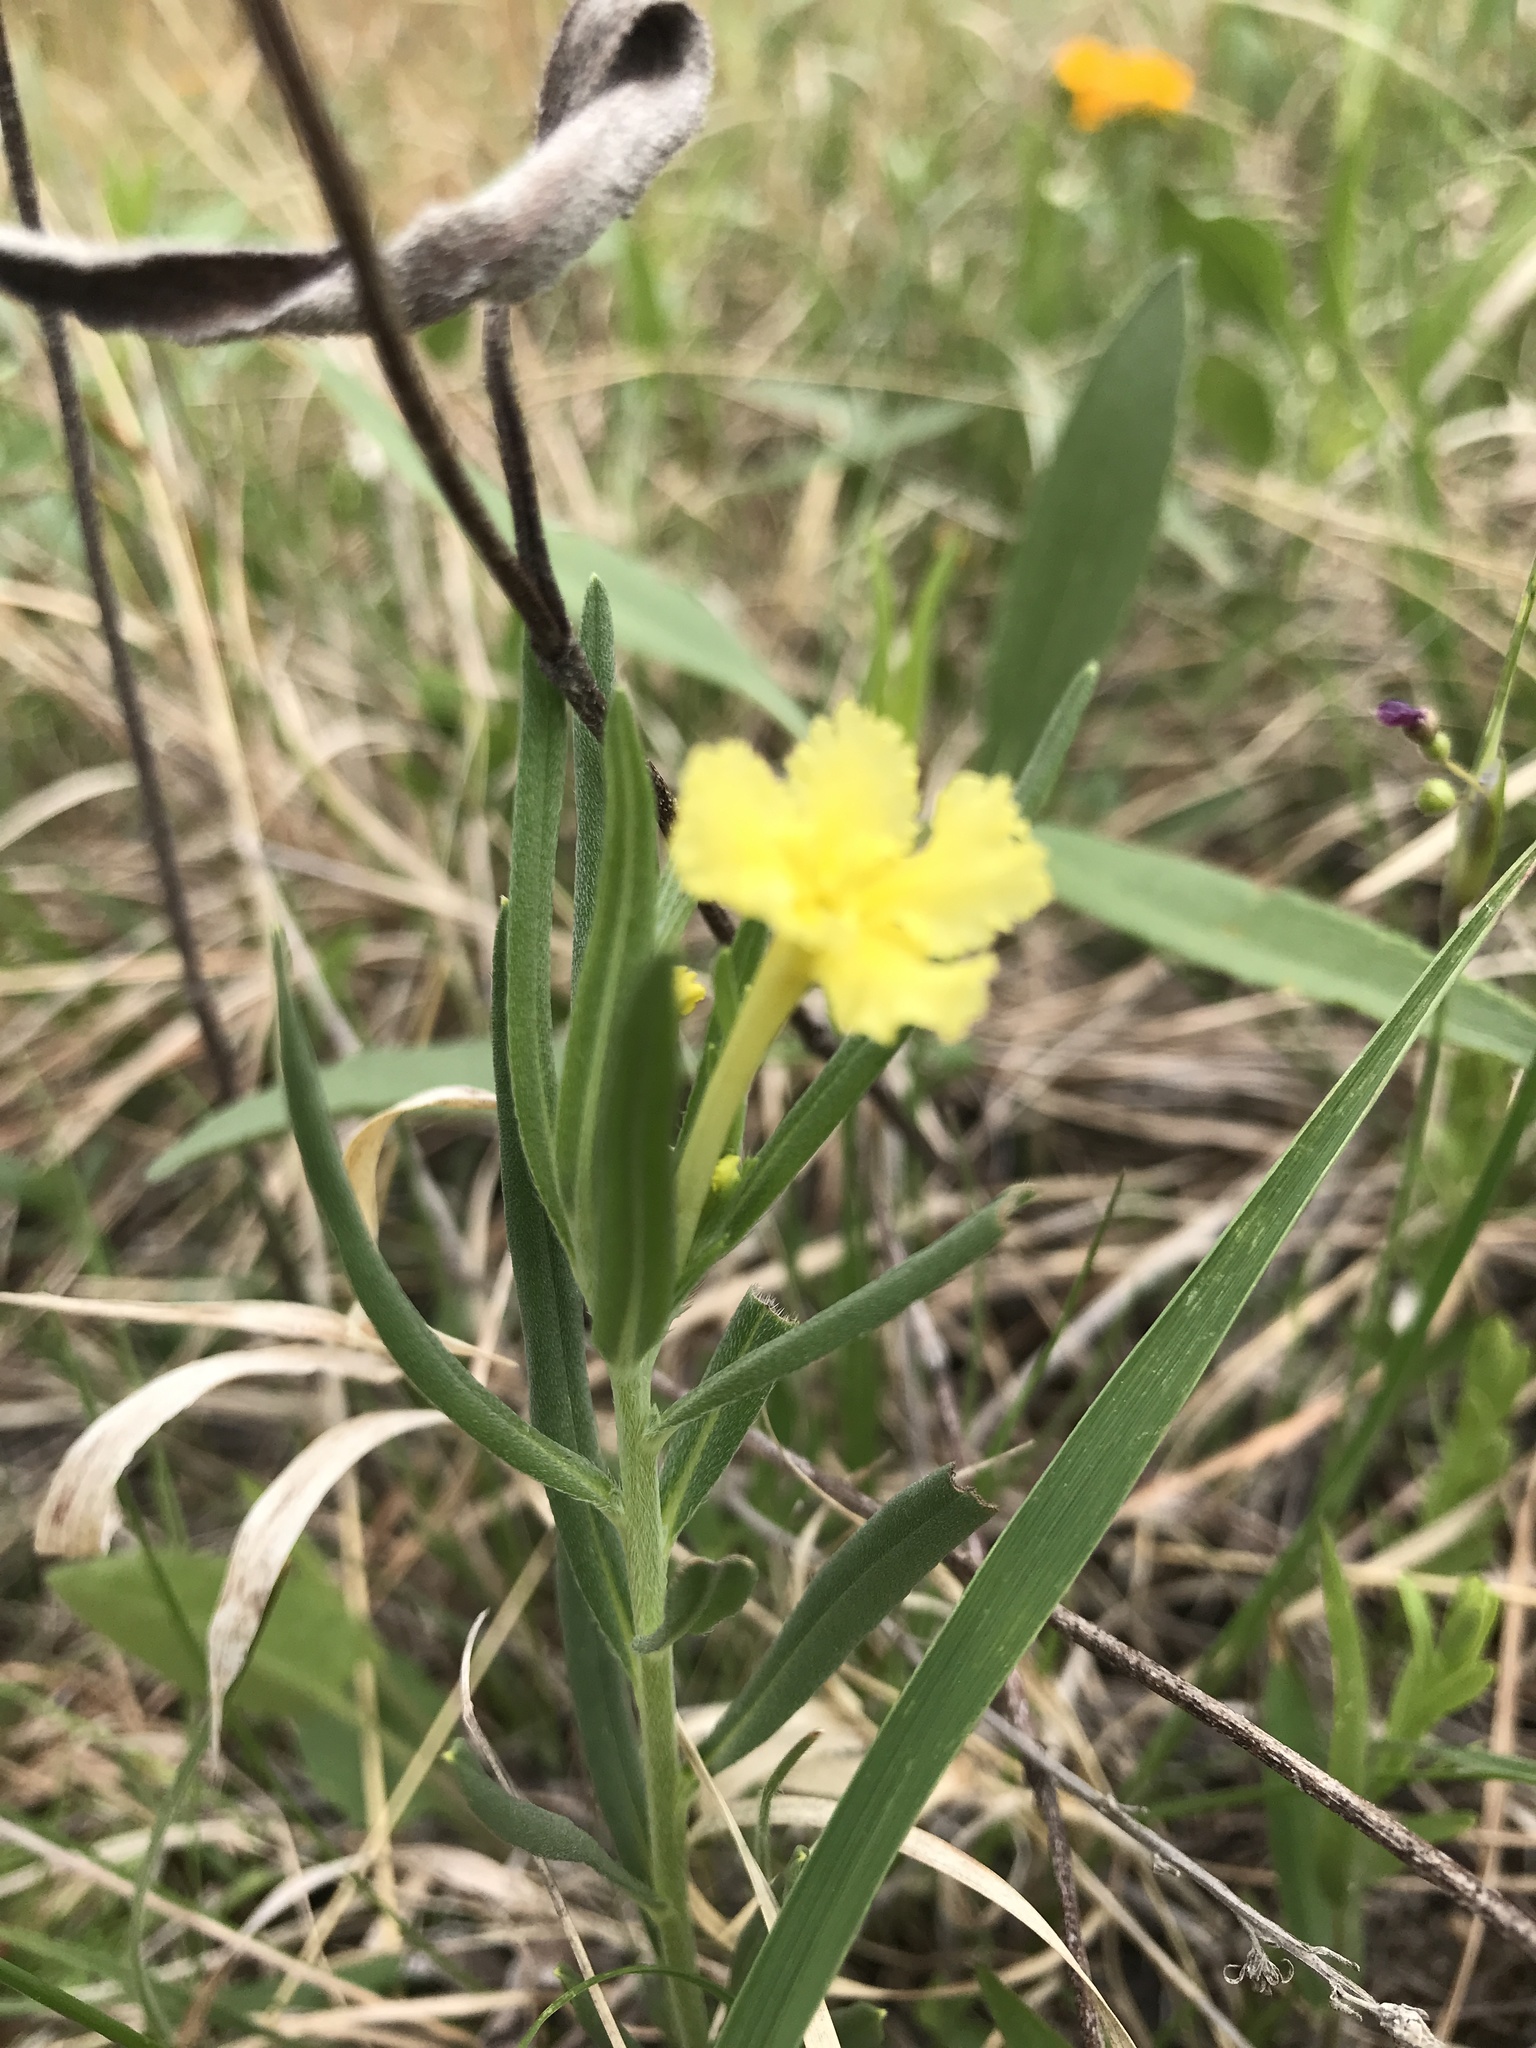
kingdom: Plantae
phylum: Tracheophyta
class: Magnoliopsida
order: Boraginales
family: Boraginaceae
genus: Lithospermum
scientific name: Lithospermum incisum
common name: Fringed gromwell
